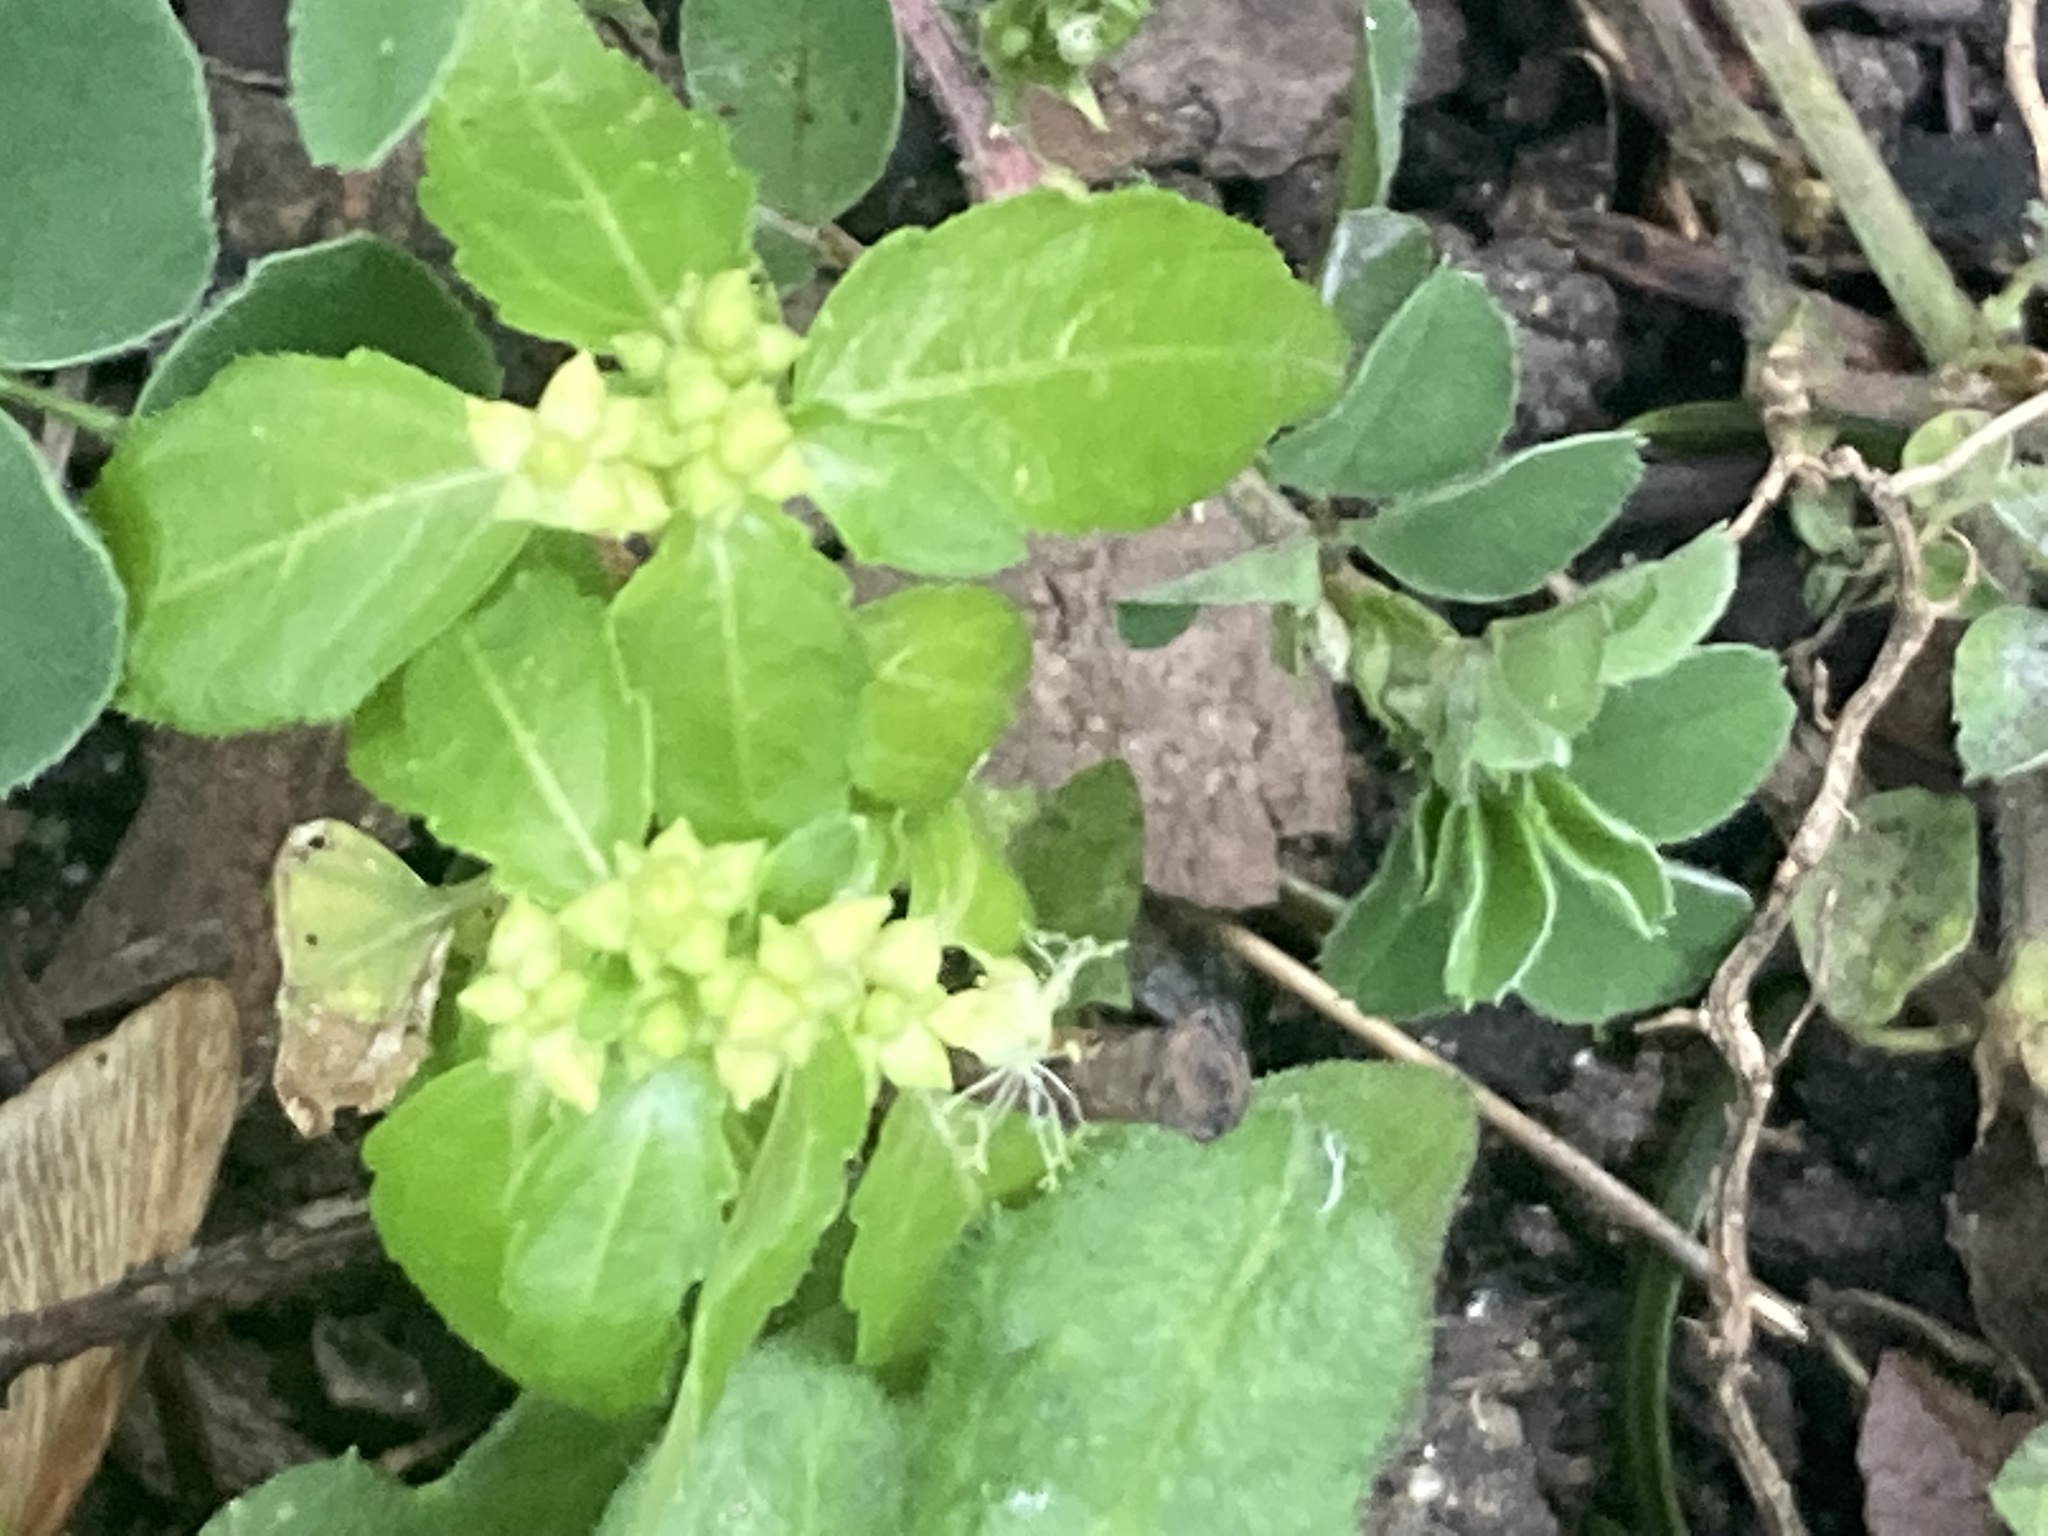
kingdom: Plantae
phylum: Tracheophyta
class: Magnoliopsida
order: Malpighiales
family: Euphorbiaceae
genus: Mercurialis
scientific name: Mercurialis annua
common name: Annual mercury
